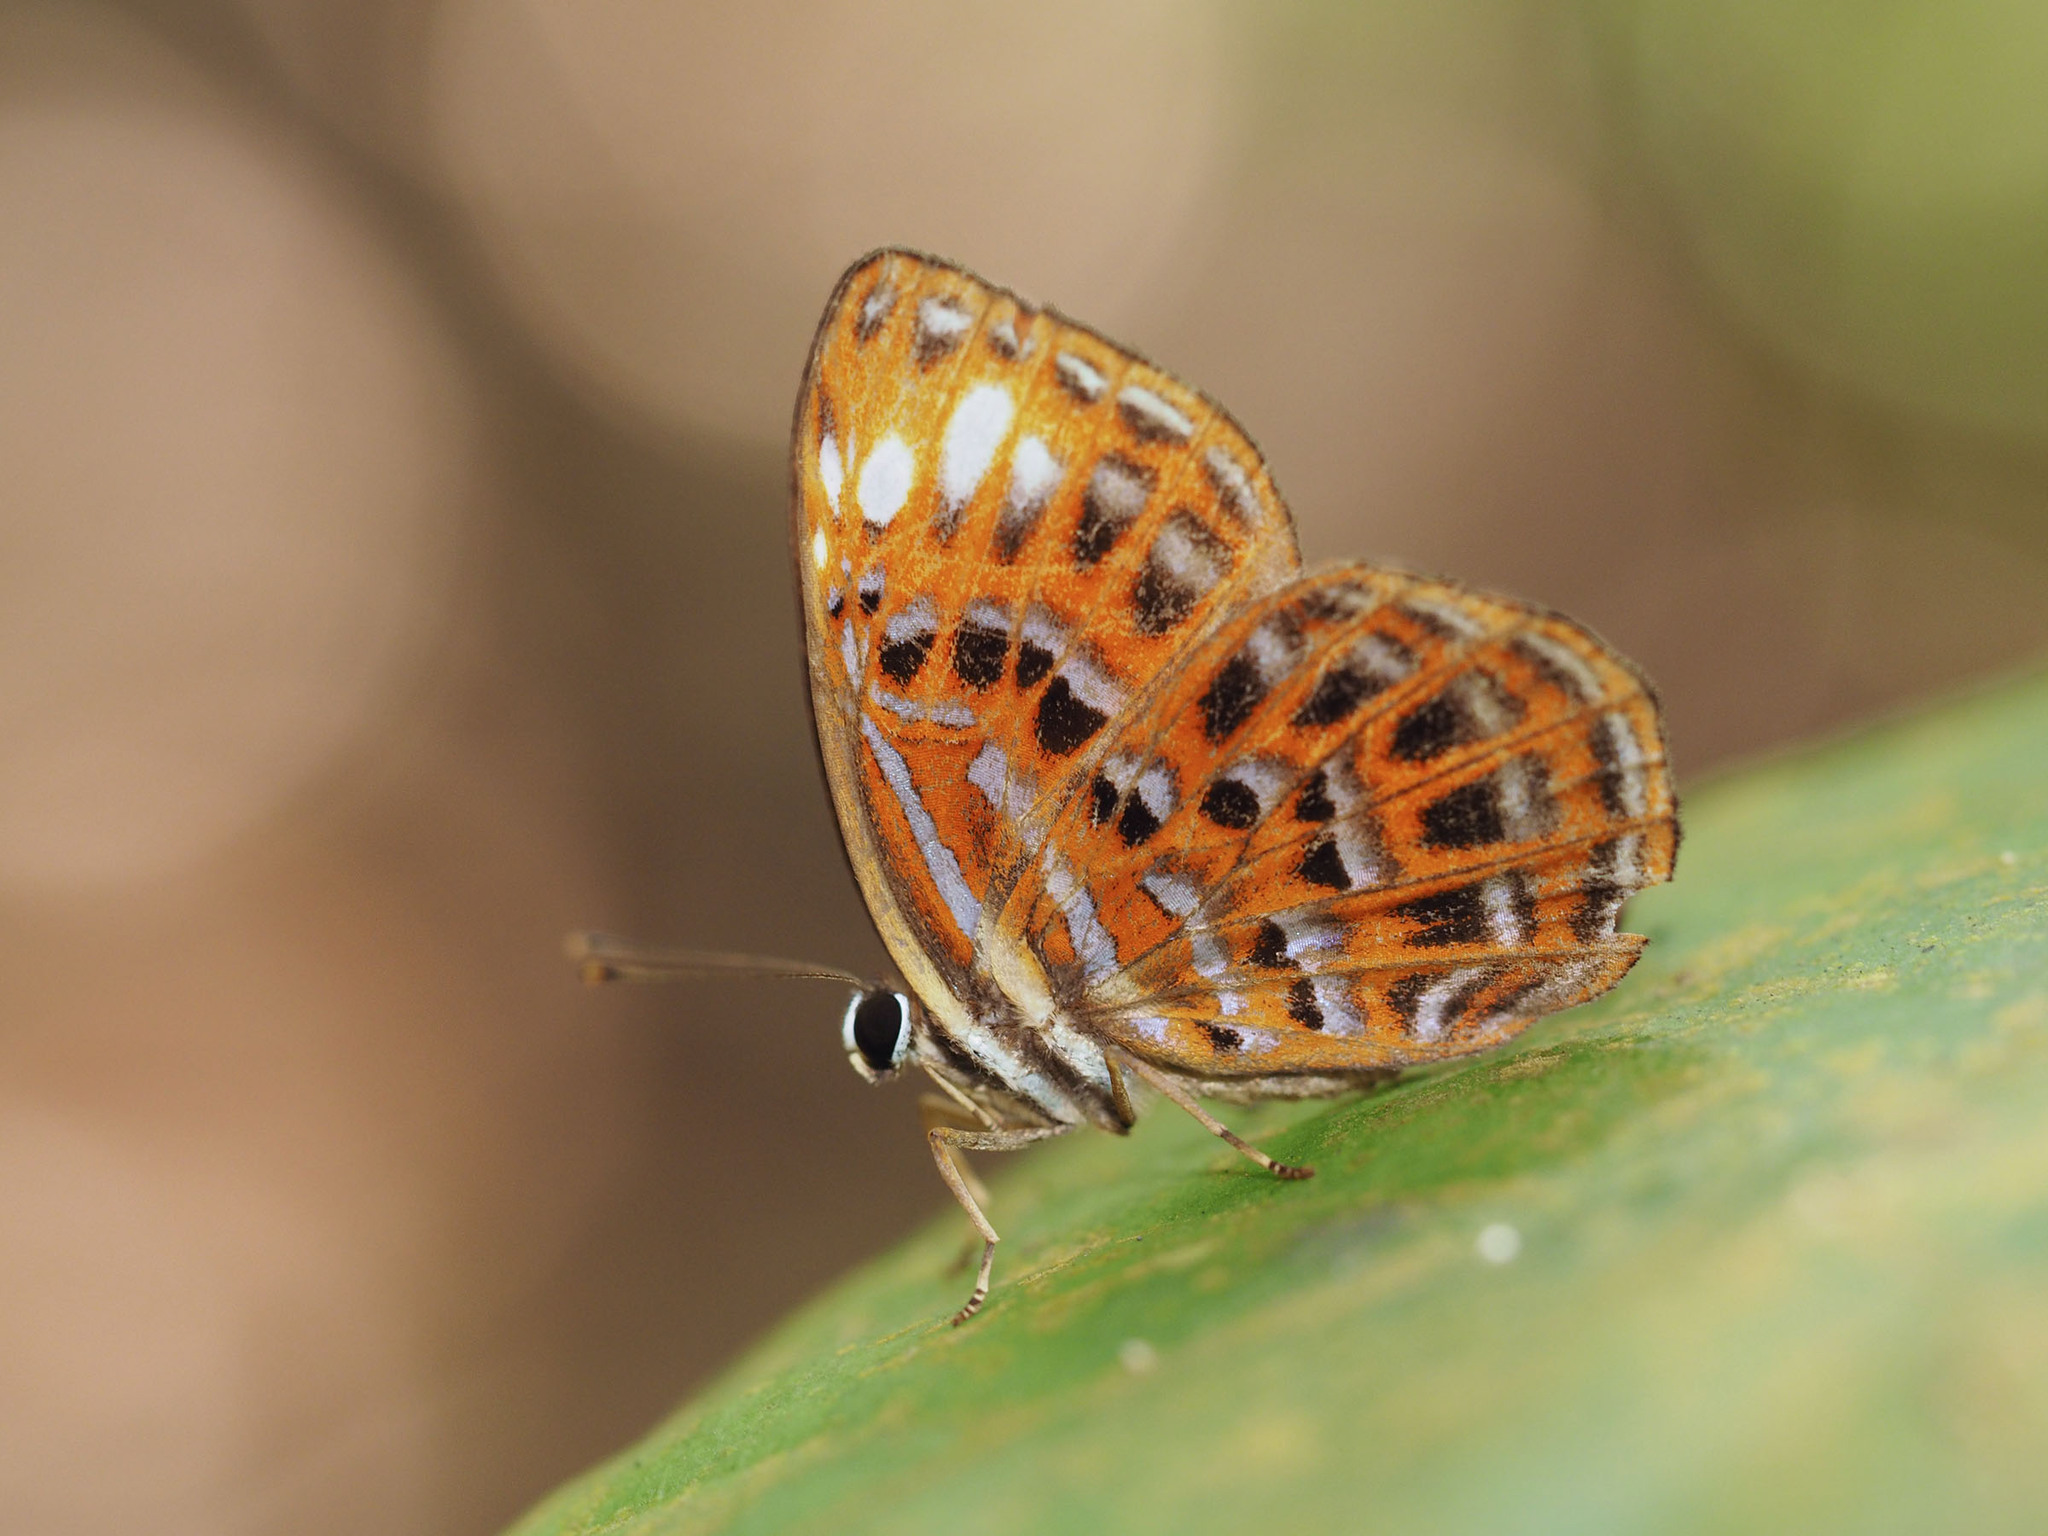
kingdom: Animalia
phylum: Arthropoda
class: Insecta
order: Lepidoptera
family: Riodinidae
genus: Laxita
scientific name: Laxita thuisto
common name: Lesser harlequin
